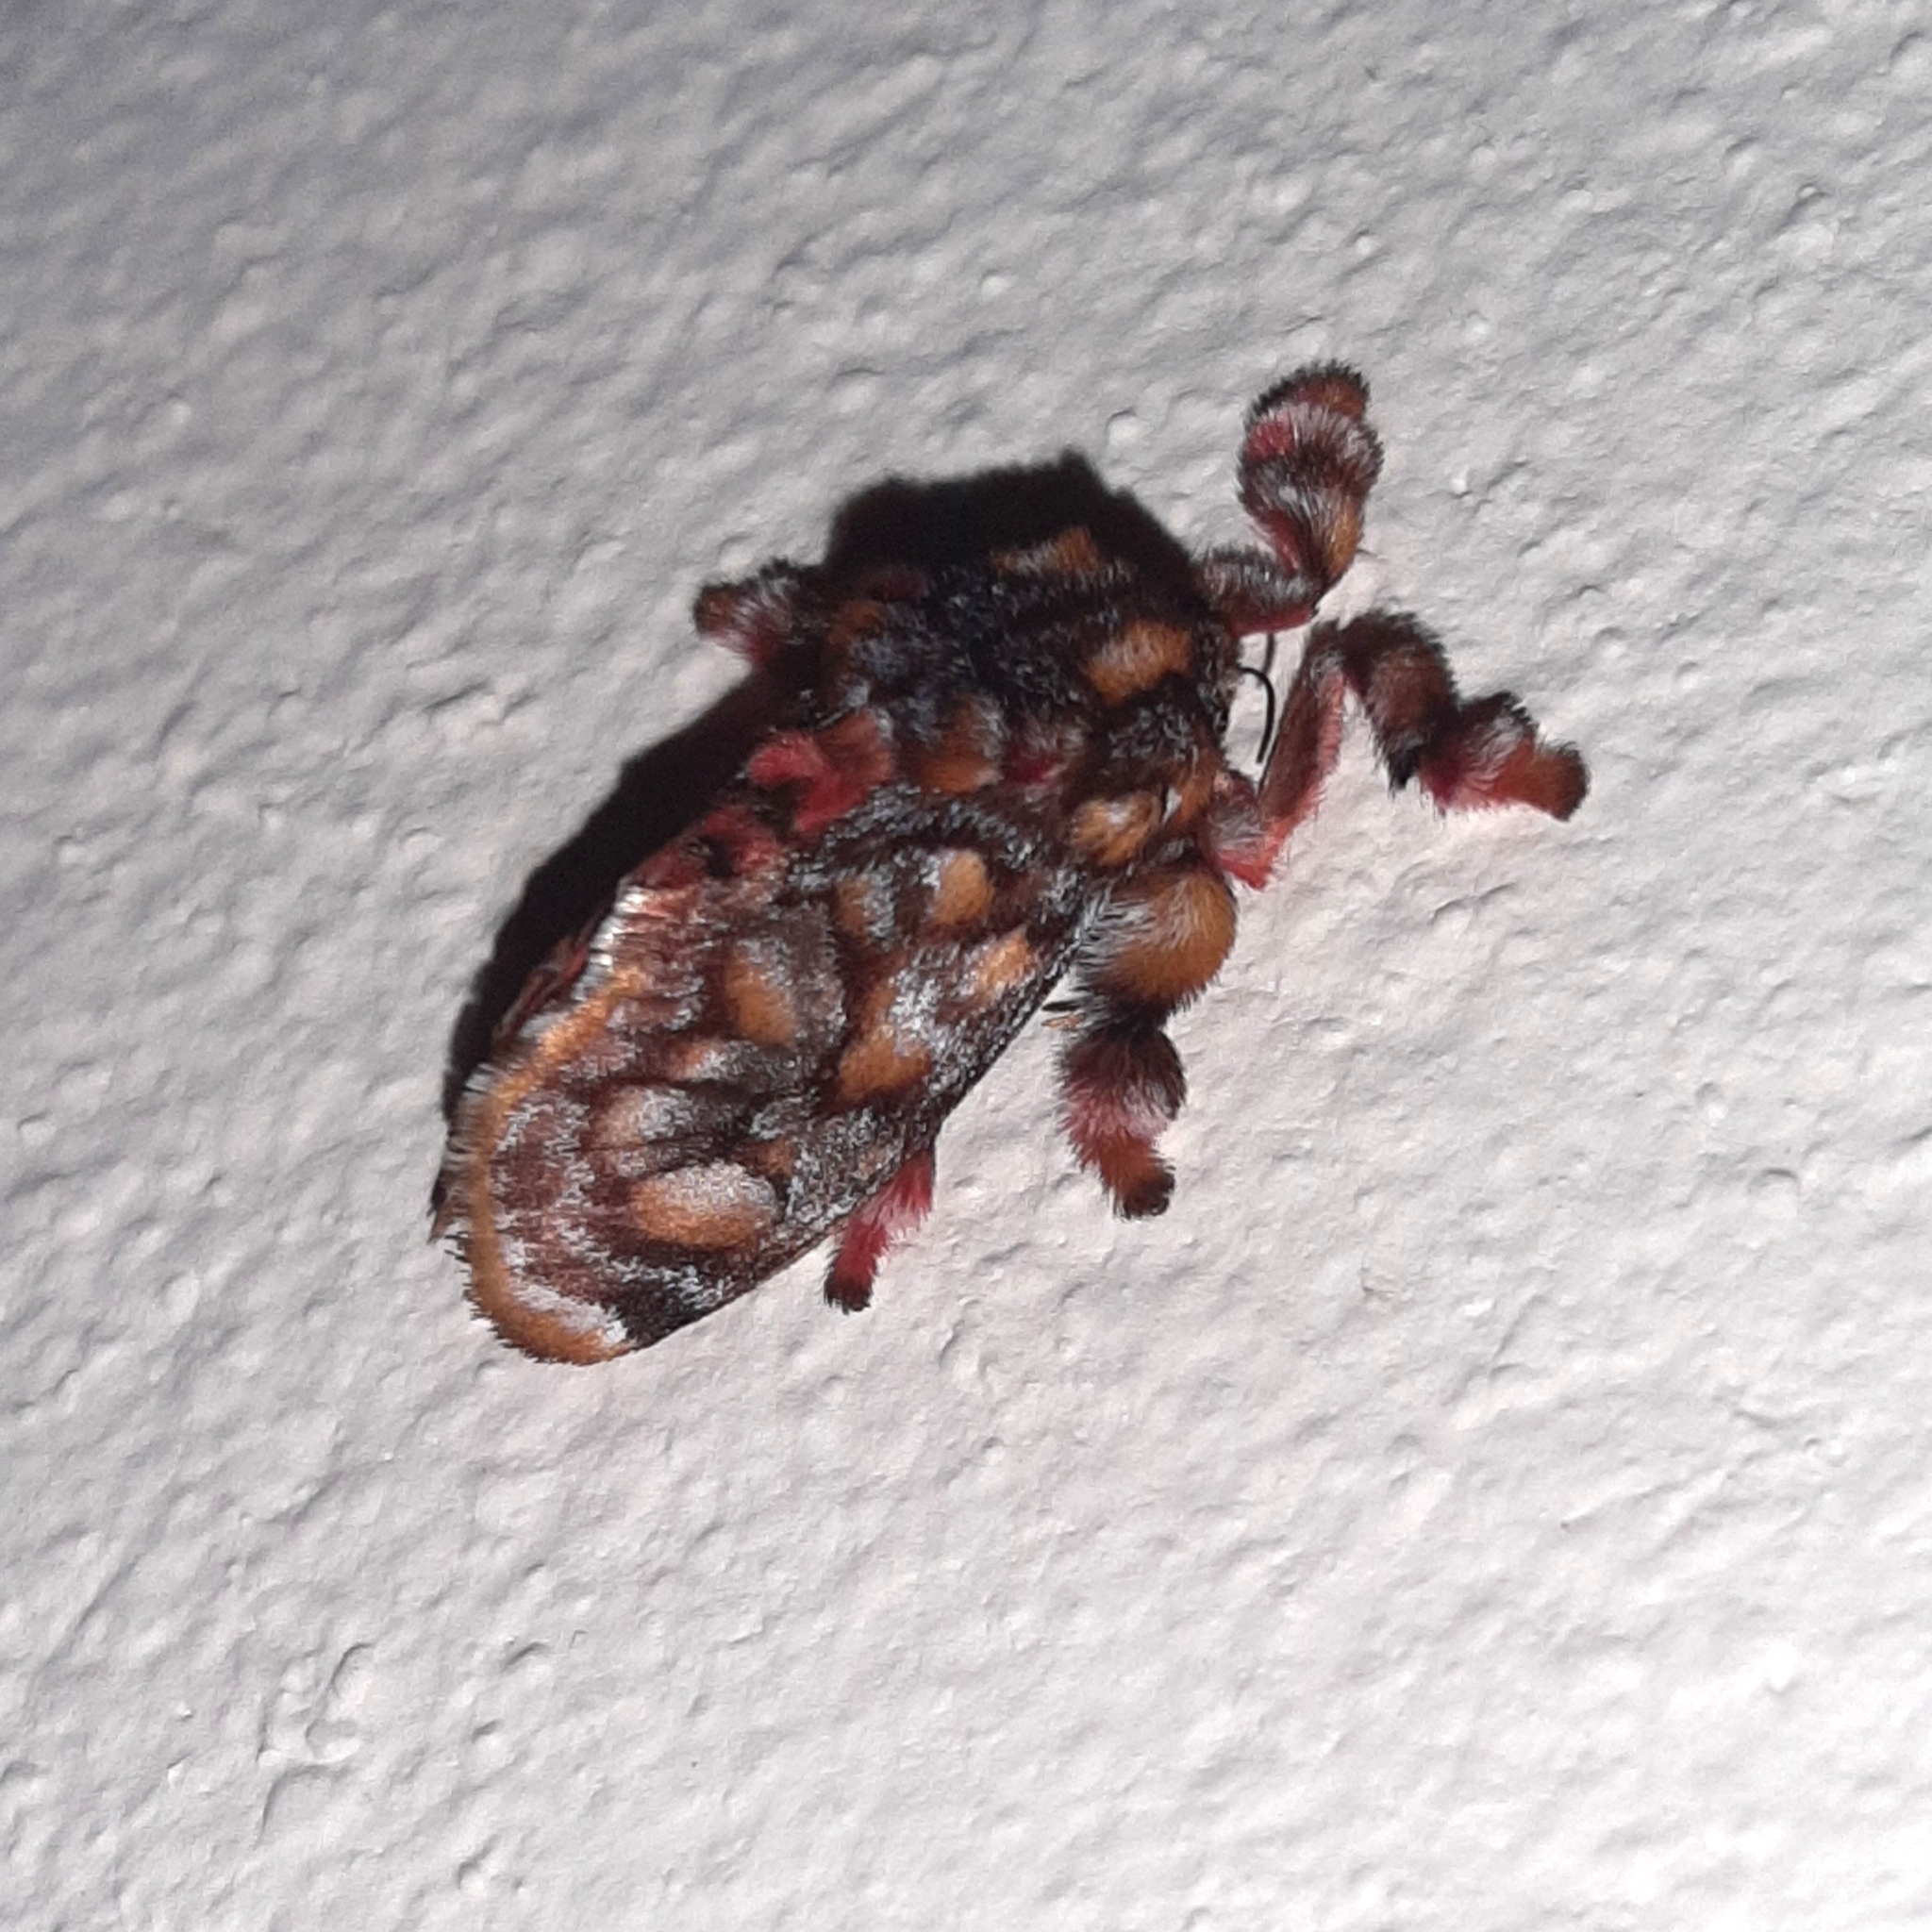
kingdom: Animalia
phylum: Arthropoda
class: Insecta
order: Lepidoptera
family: Limacodidae
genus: Phobetron
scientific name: Phobetron hipparchia
